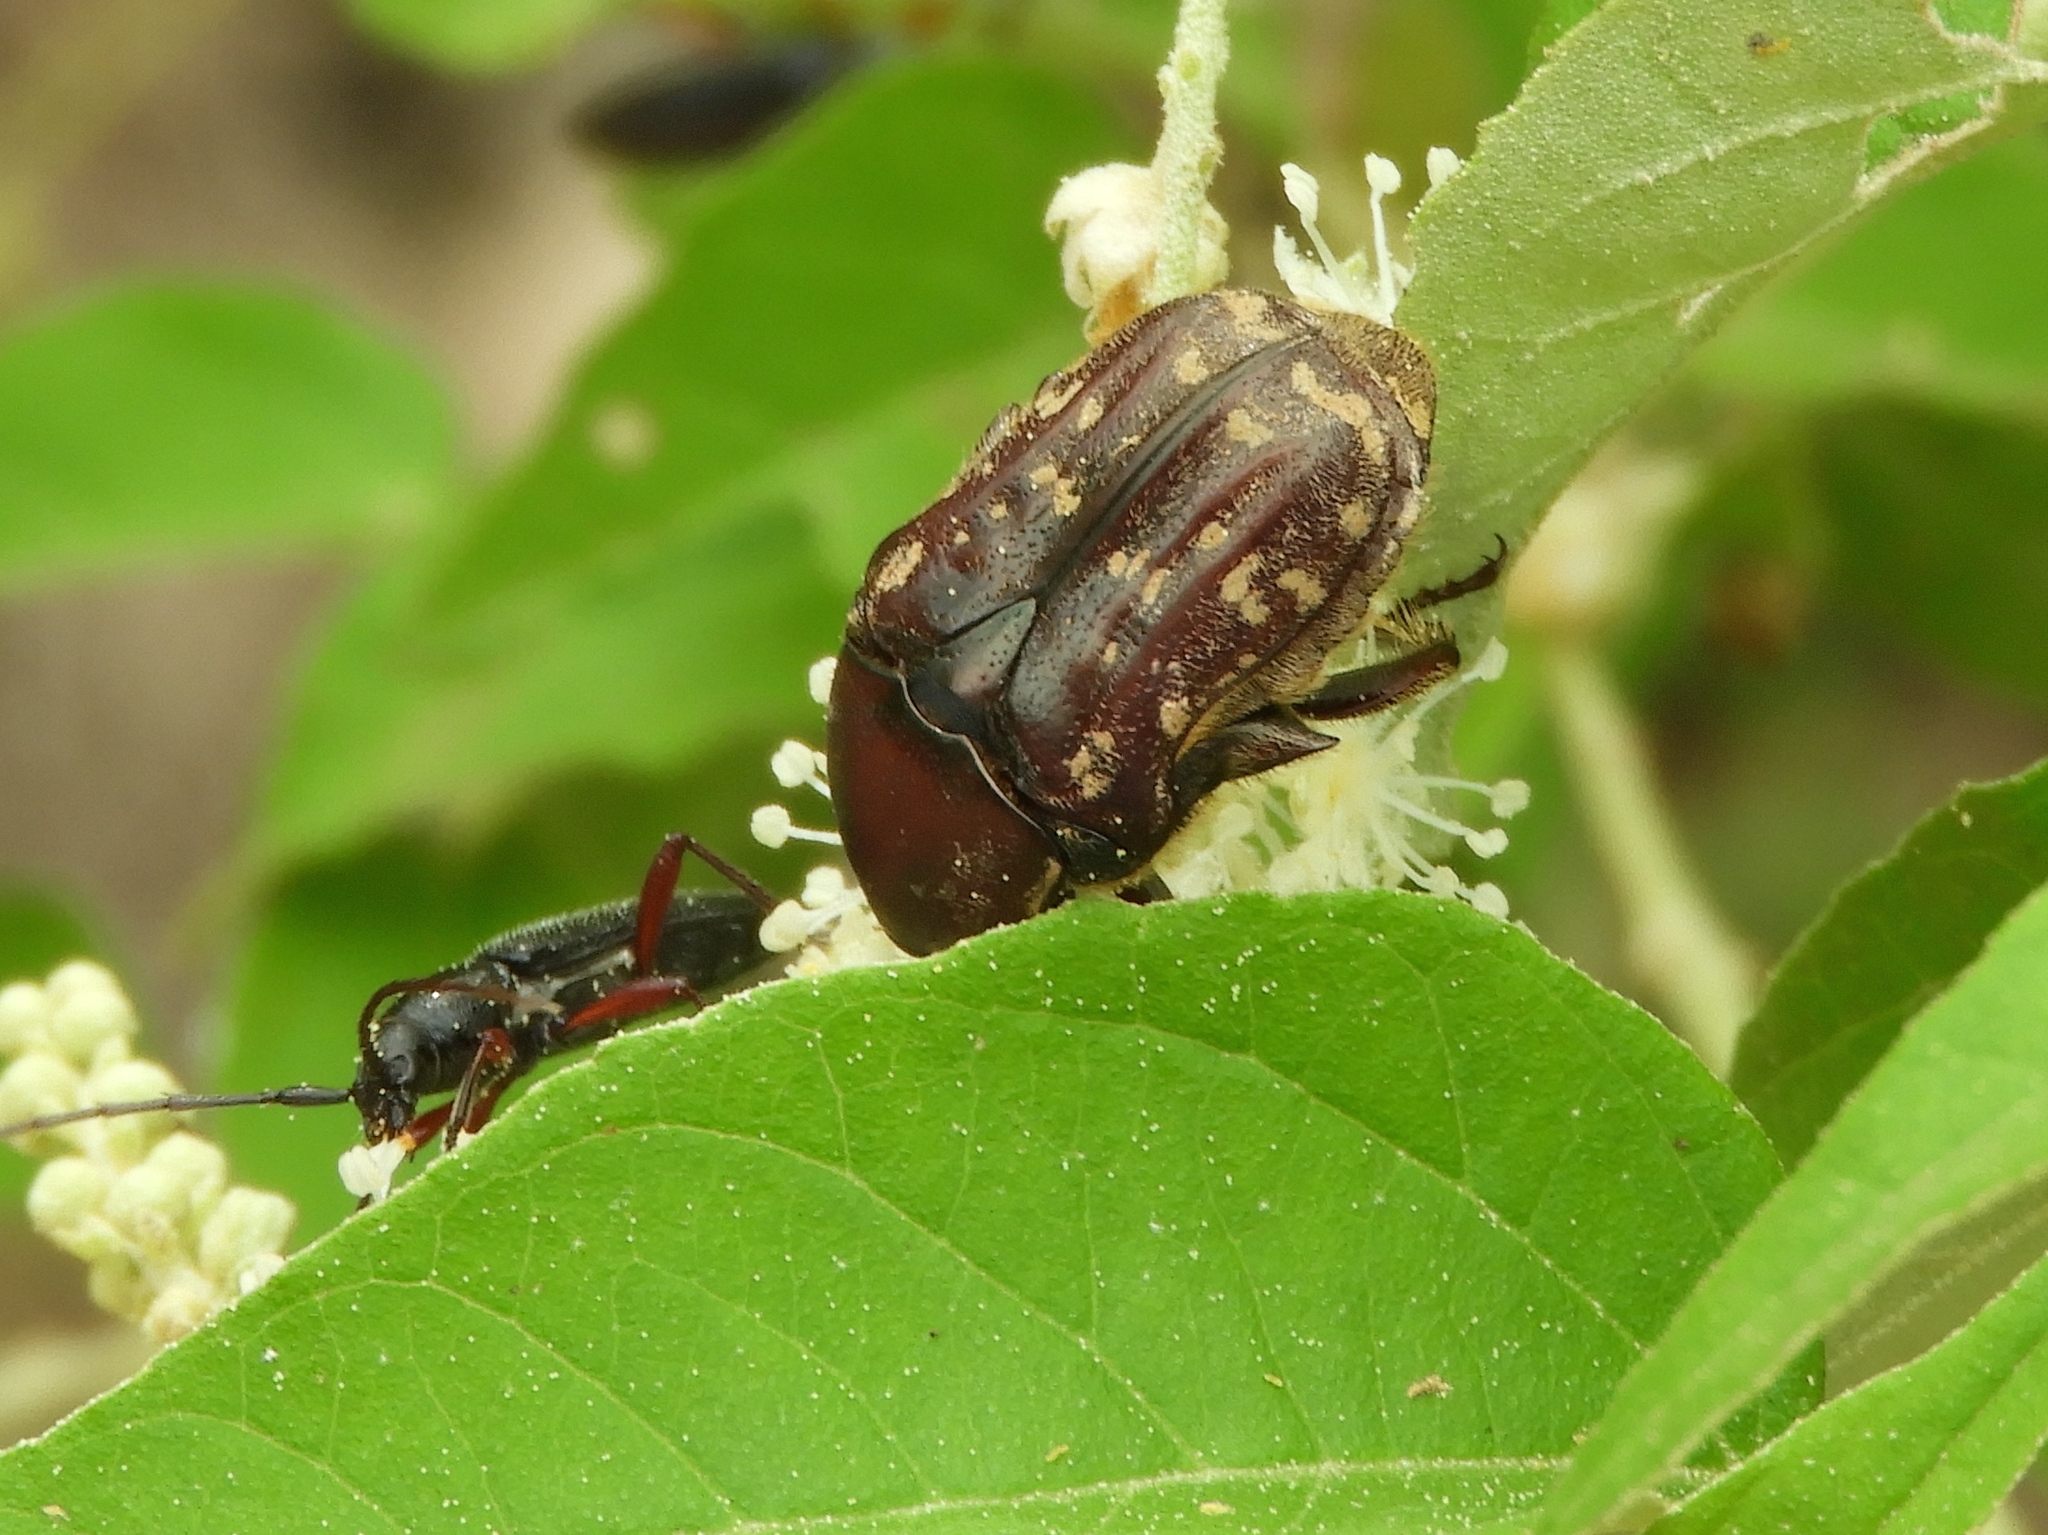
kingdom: Animalia
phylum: Arthropoda
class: Insecta
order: Coleoptera
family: Scarabaeidae
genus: Euphoria
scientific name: Euphoria leucographa
